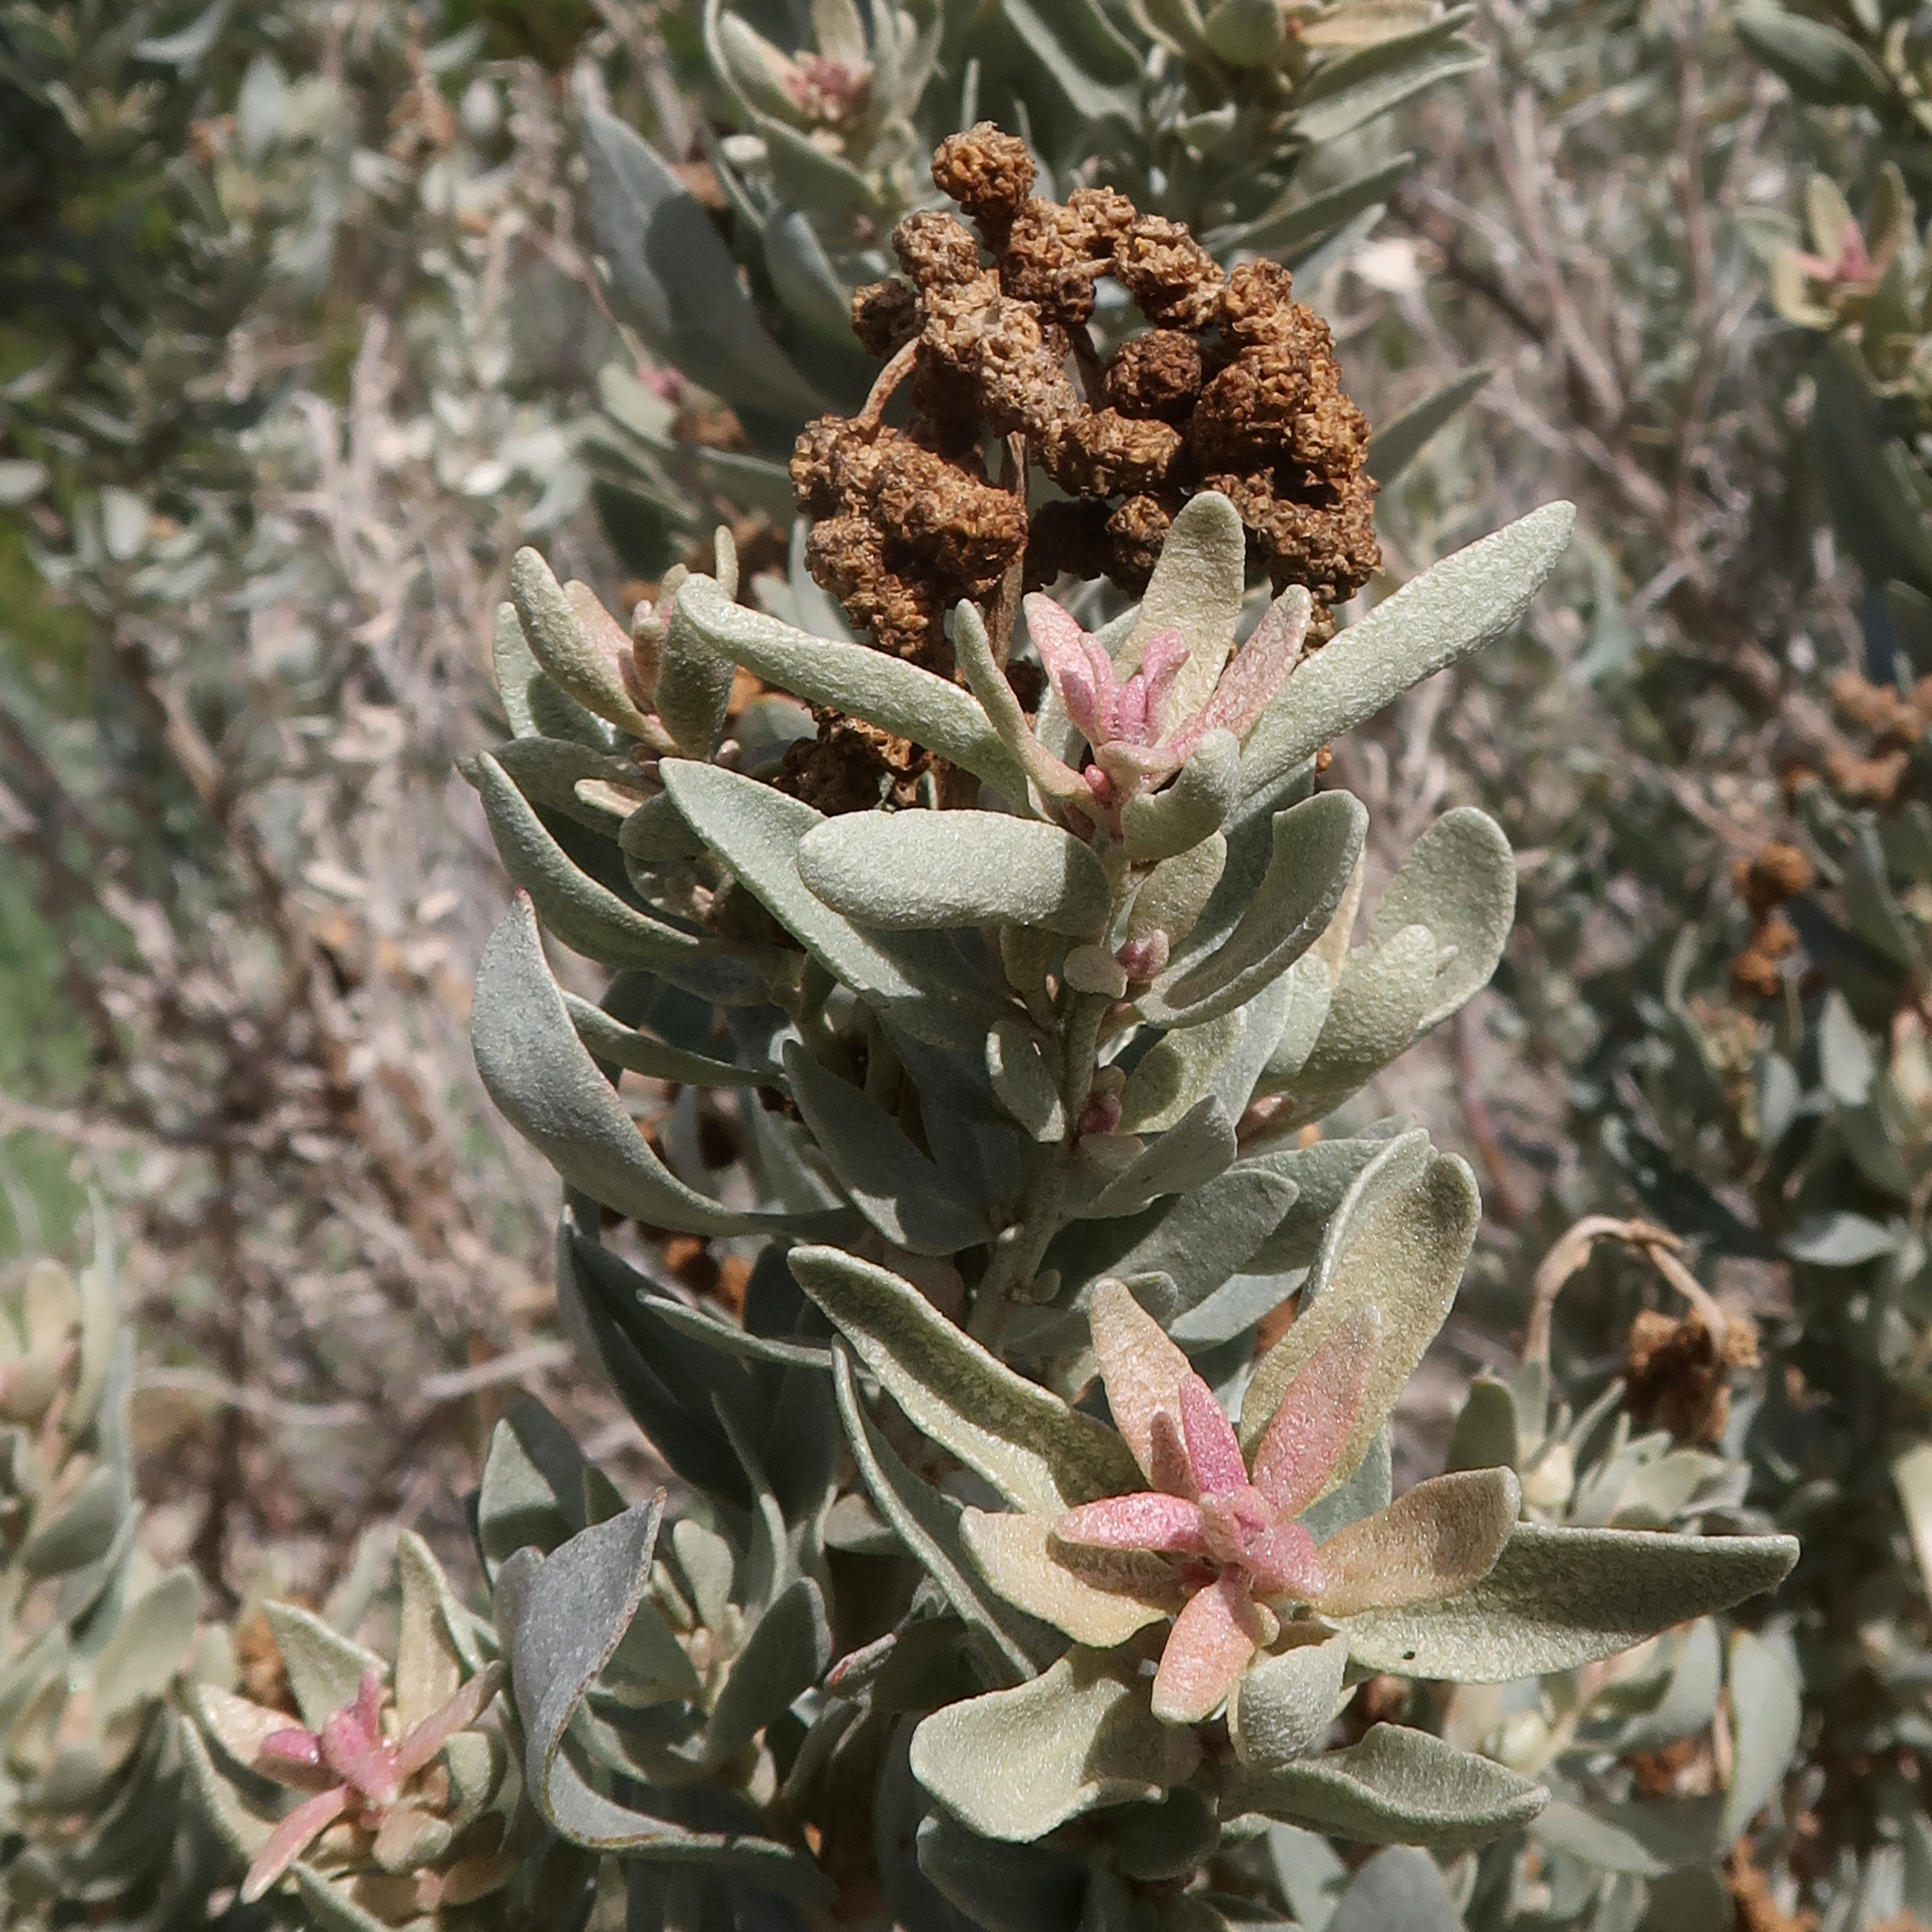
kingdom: Plantae
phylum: Tracheophyta
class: Magnoliopsida
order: Caryophyllales
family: Amaranthaceae
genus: Atriplex
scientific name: Atriplex cinerea
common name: Grey saltbush
